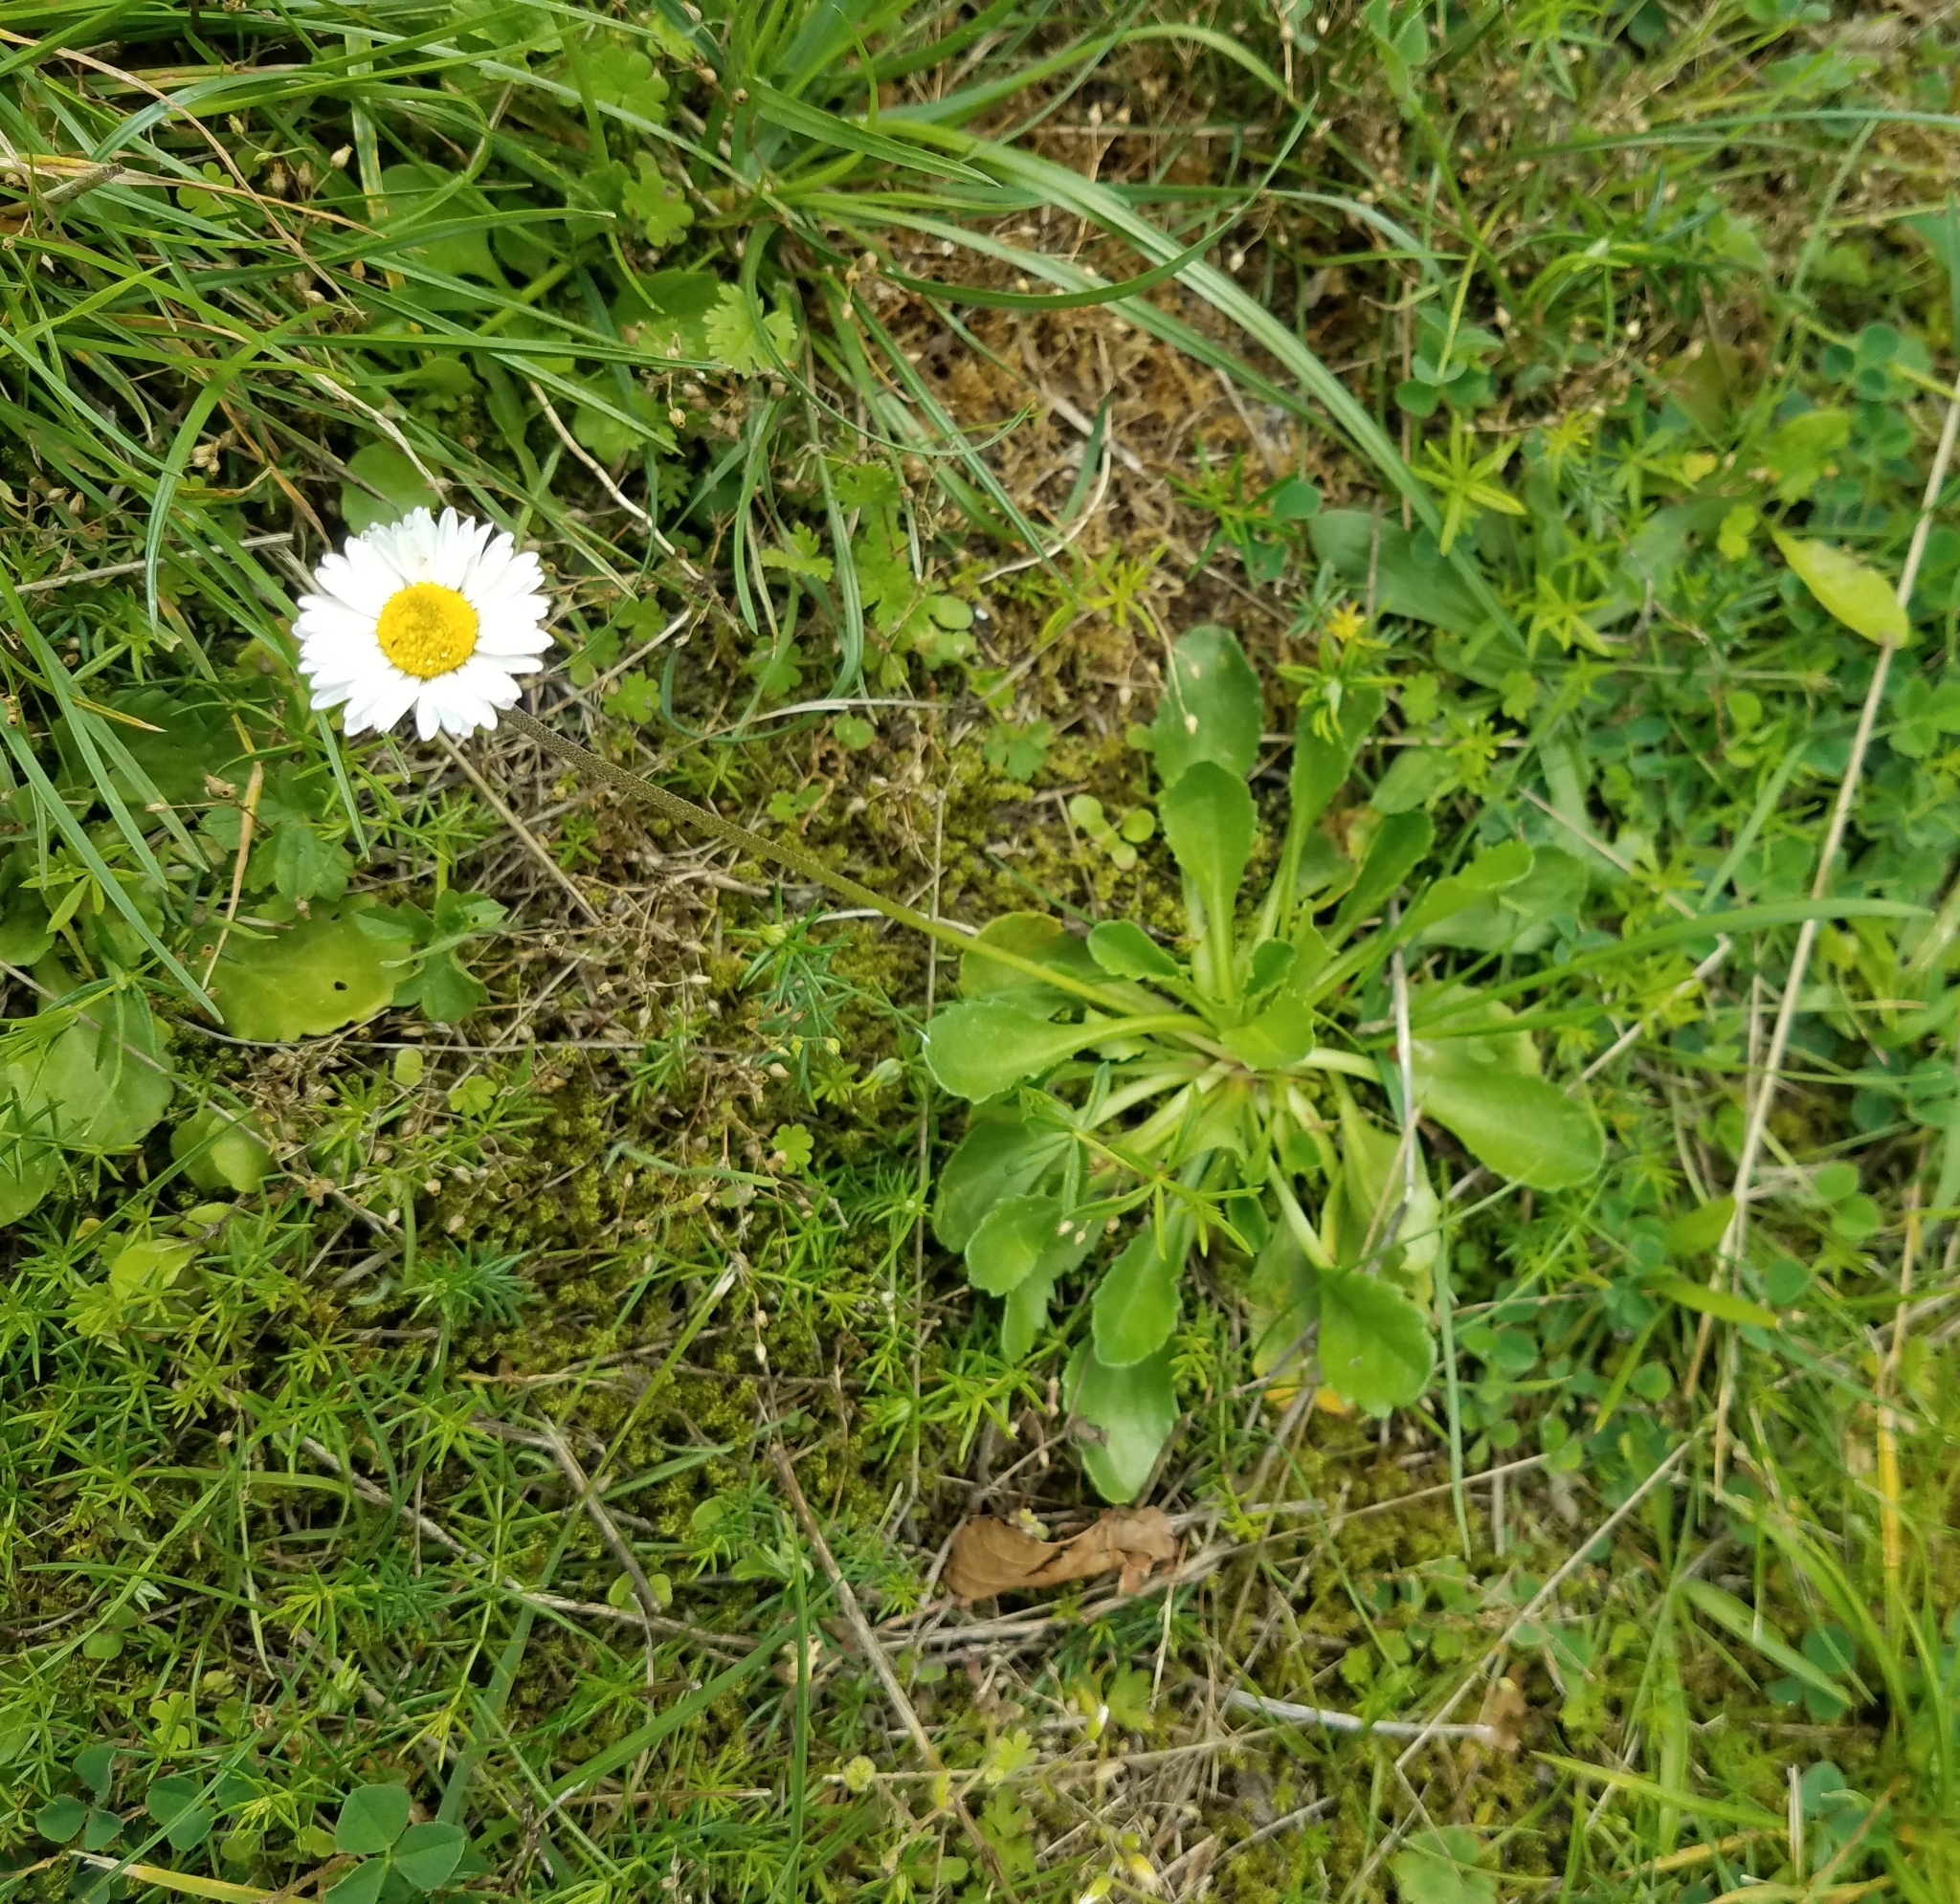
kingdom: Plantae
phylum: Tracheophyta
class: Magnoliopsida
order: Asterales
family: Asteraceae
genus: Bellis
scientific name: Bellis perennis
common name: Lawndaisy
